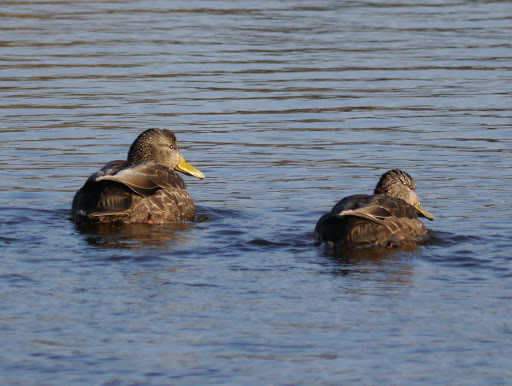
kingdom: Animalia
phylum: Chordata
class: Aves
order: Anseriformes
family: Anatidae
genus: Anas
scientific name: Anas rubripes
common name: American black duck
